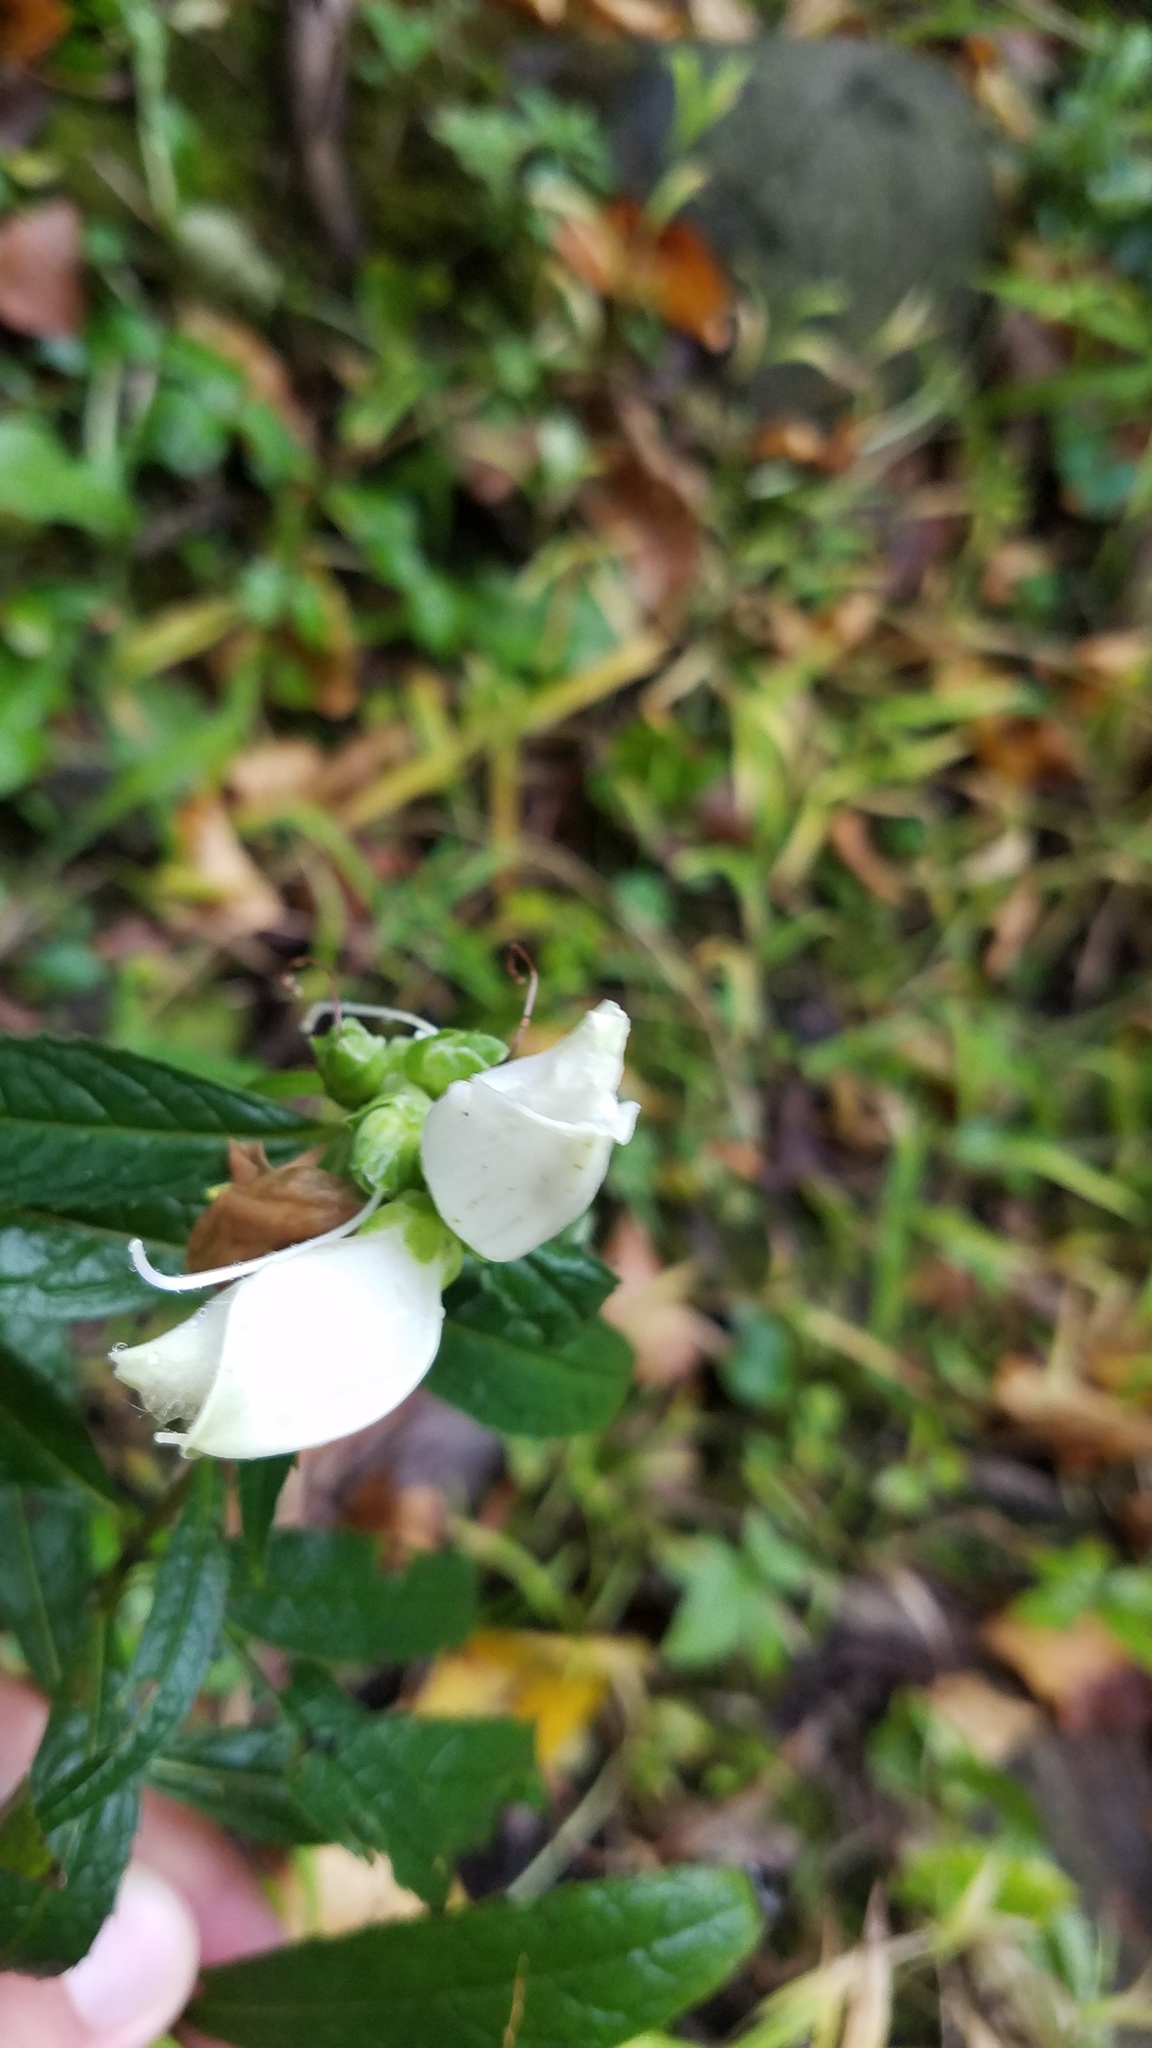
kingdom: Plantae
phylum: Tracheophyta
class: Magnoliopsida
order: Lamiales
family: Plantaginaceae
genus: Chelone
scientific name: Chelone glabra
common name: Snakehead
